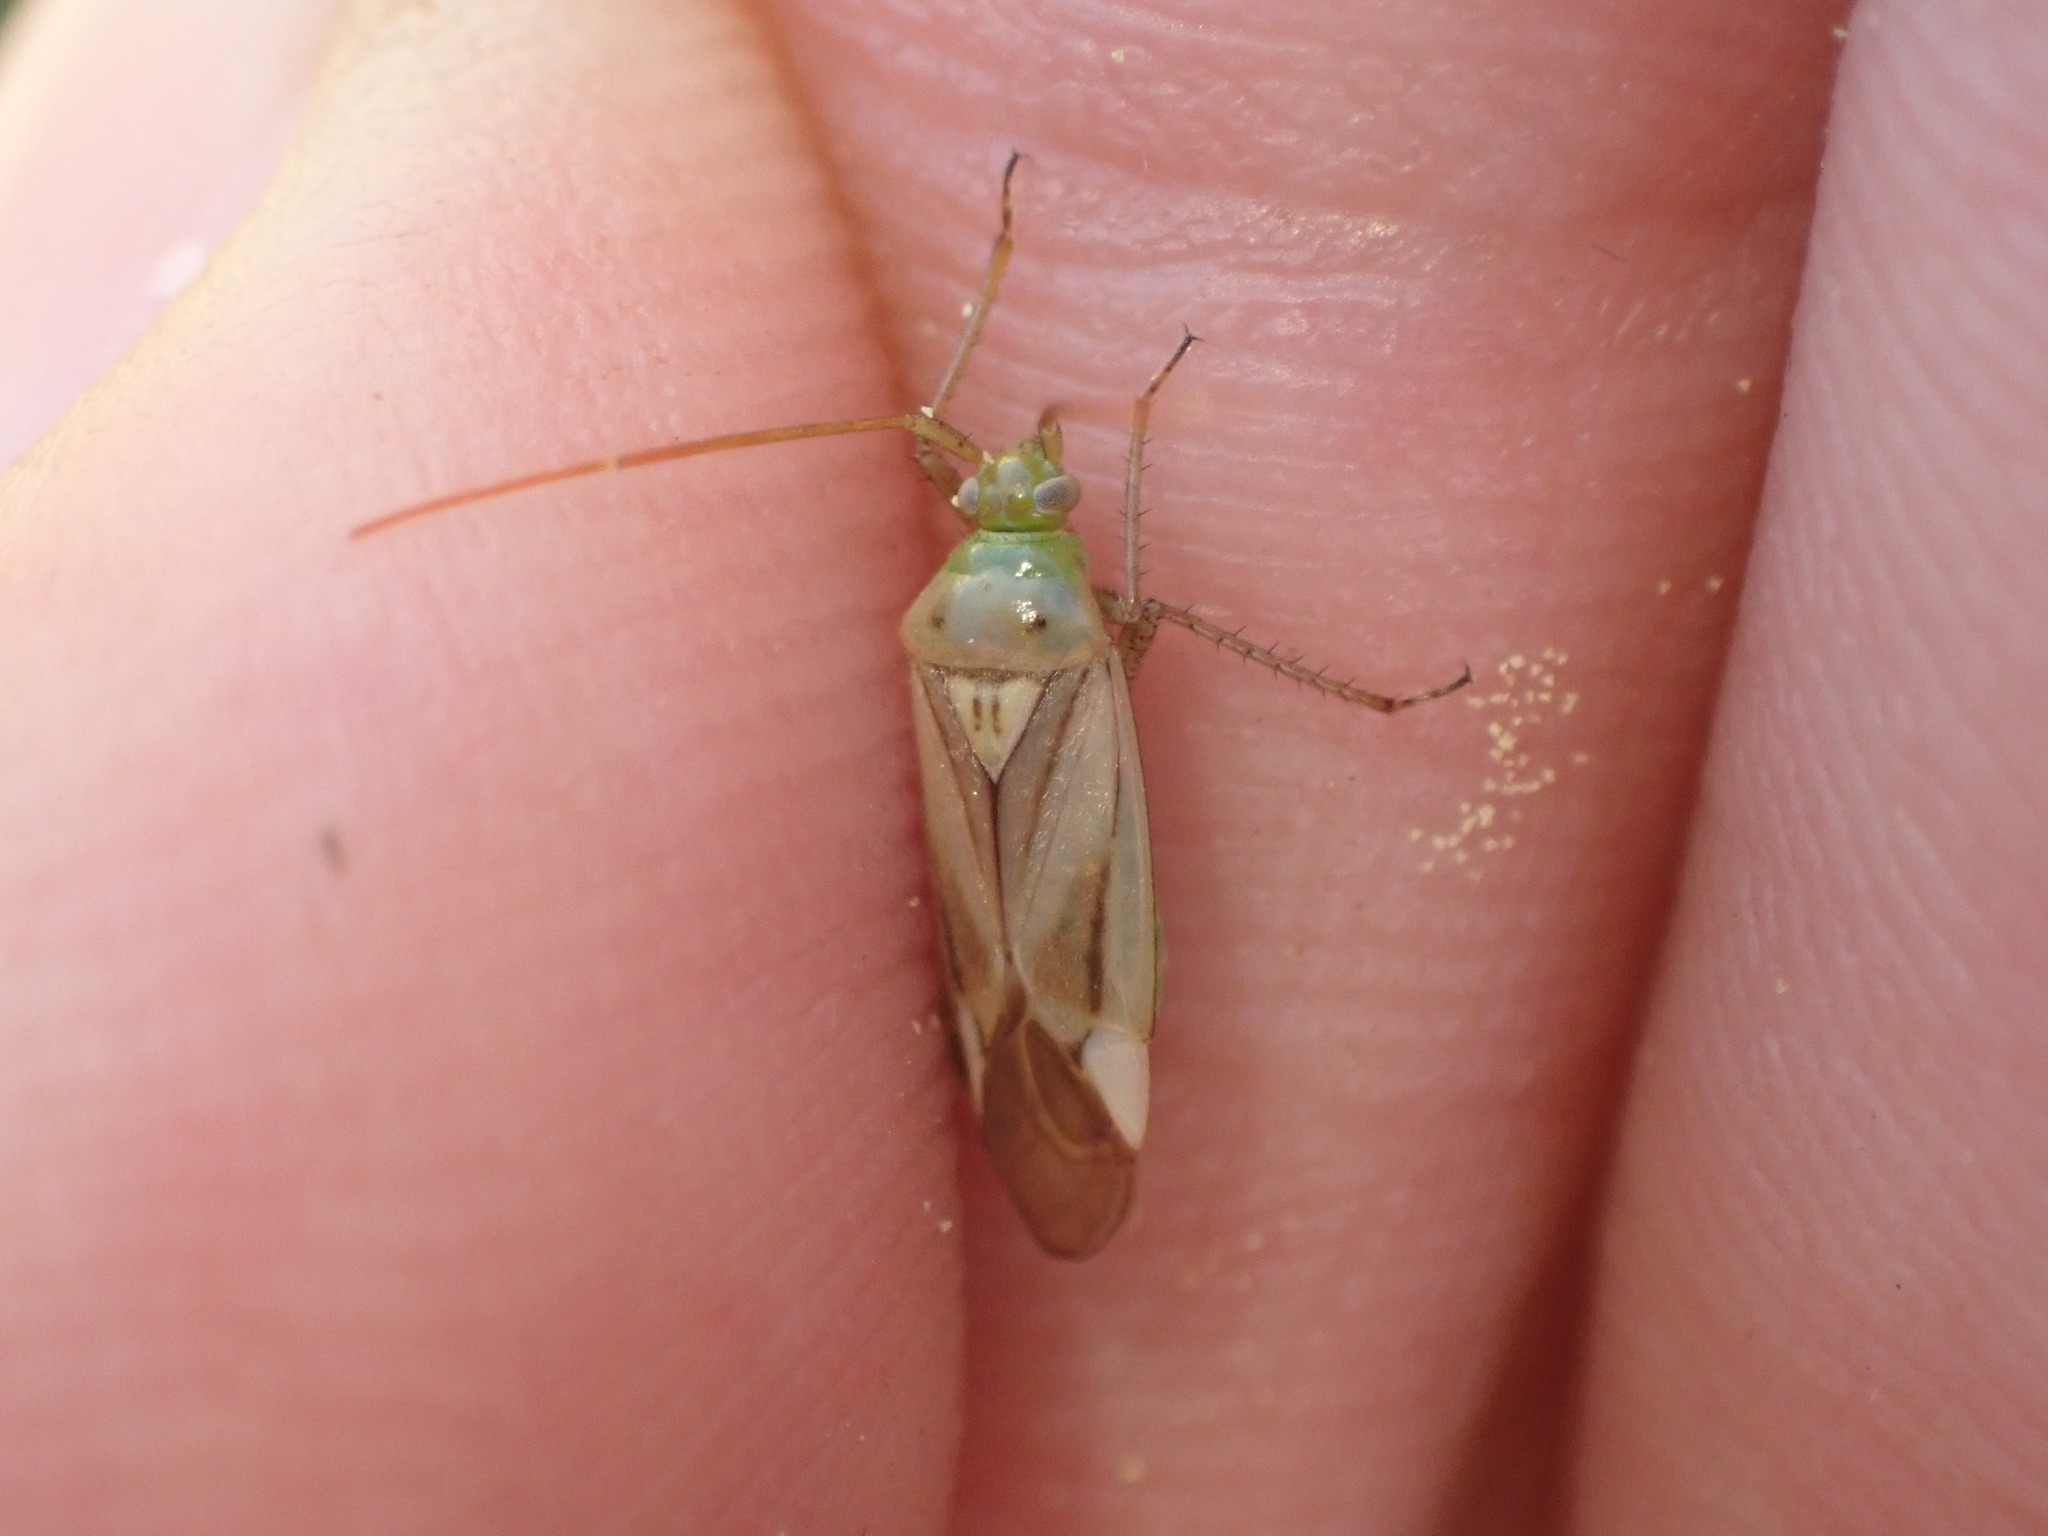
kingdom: Animalia
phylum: Arthropoda
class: Insecta
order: Hemiptera
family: Miridae
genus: Adelphocoris
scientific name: Adelphocoris lineolatus
